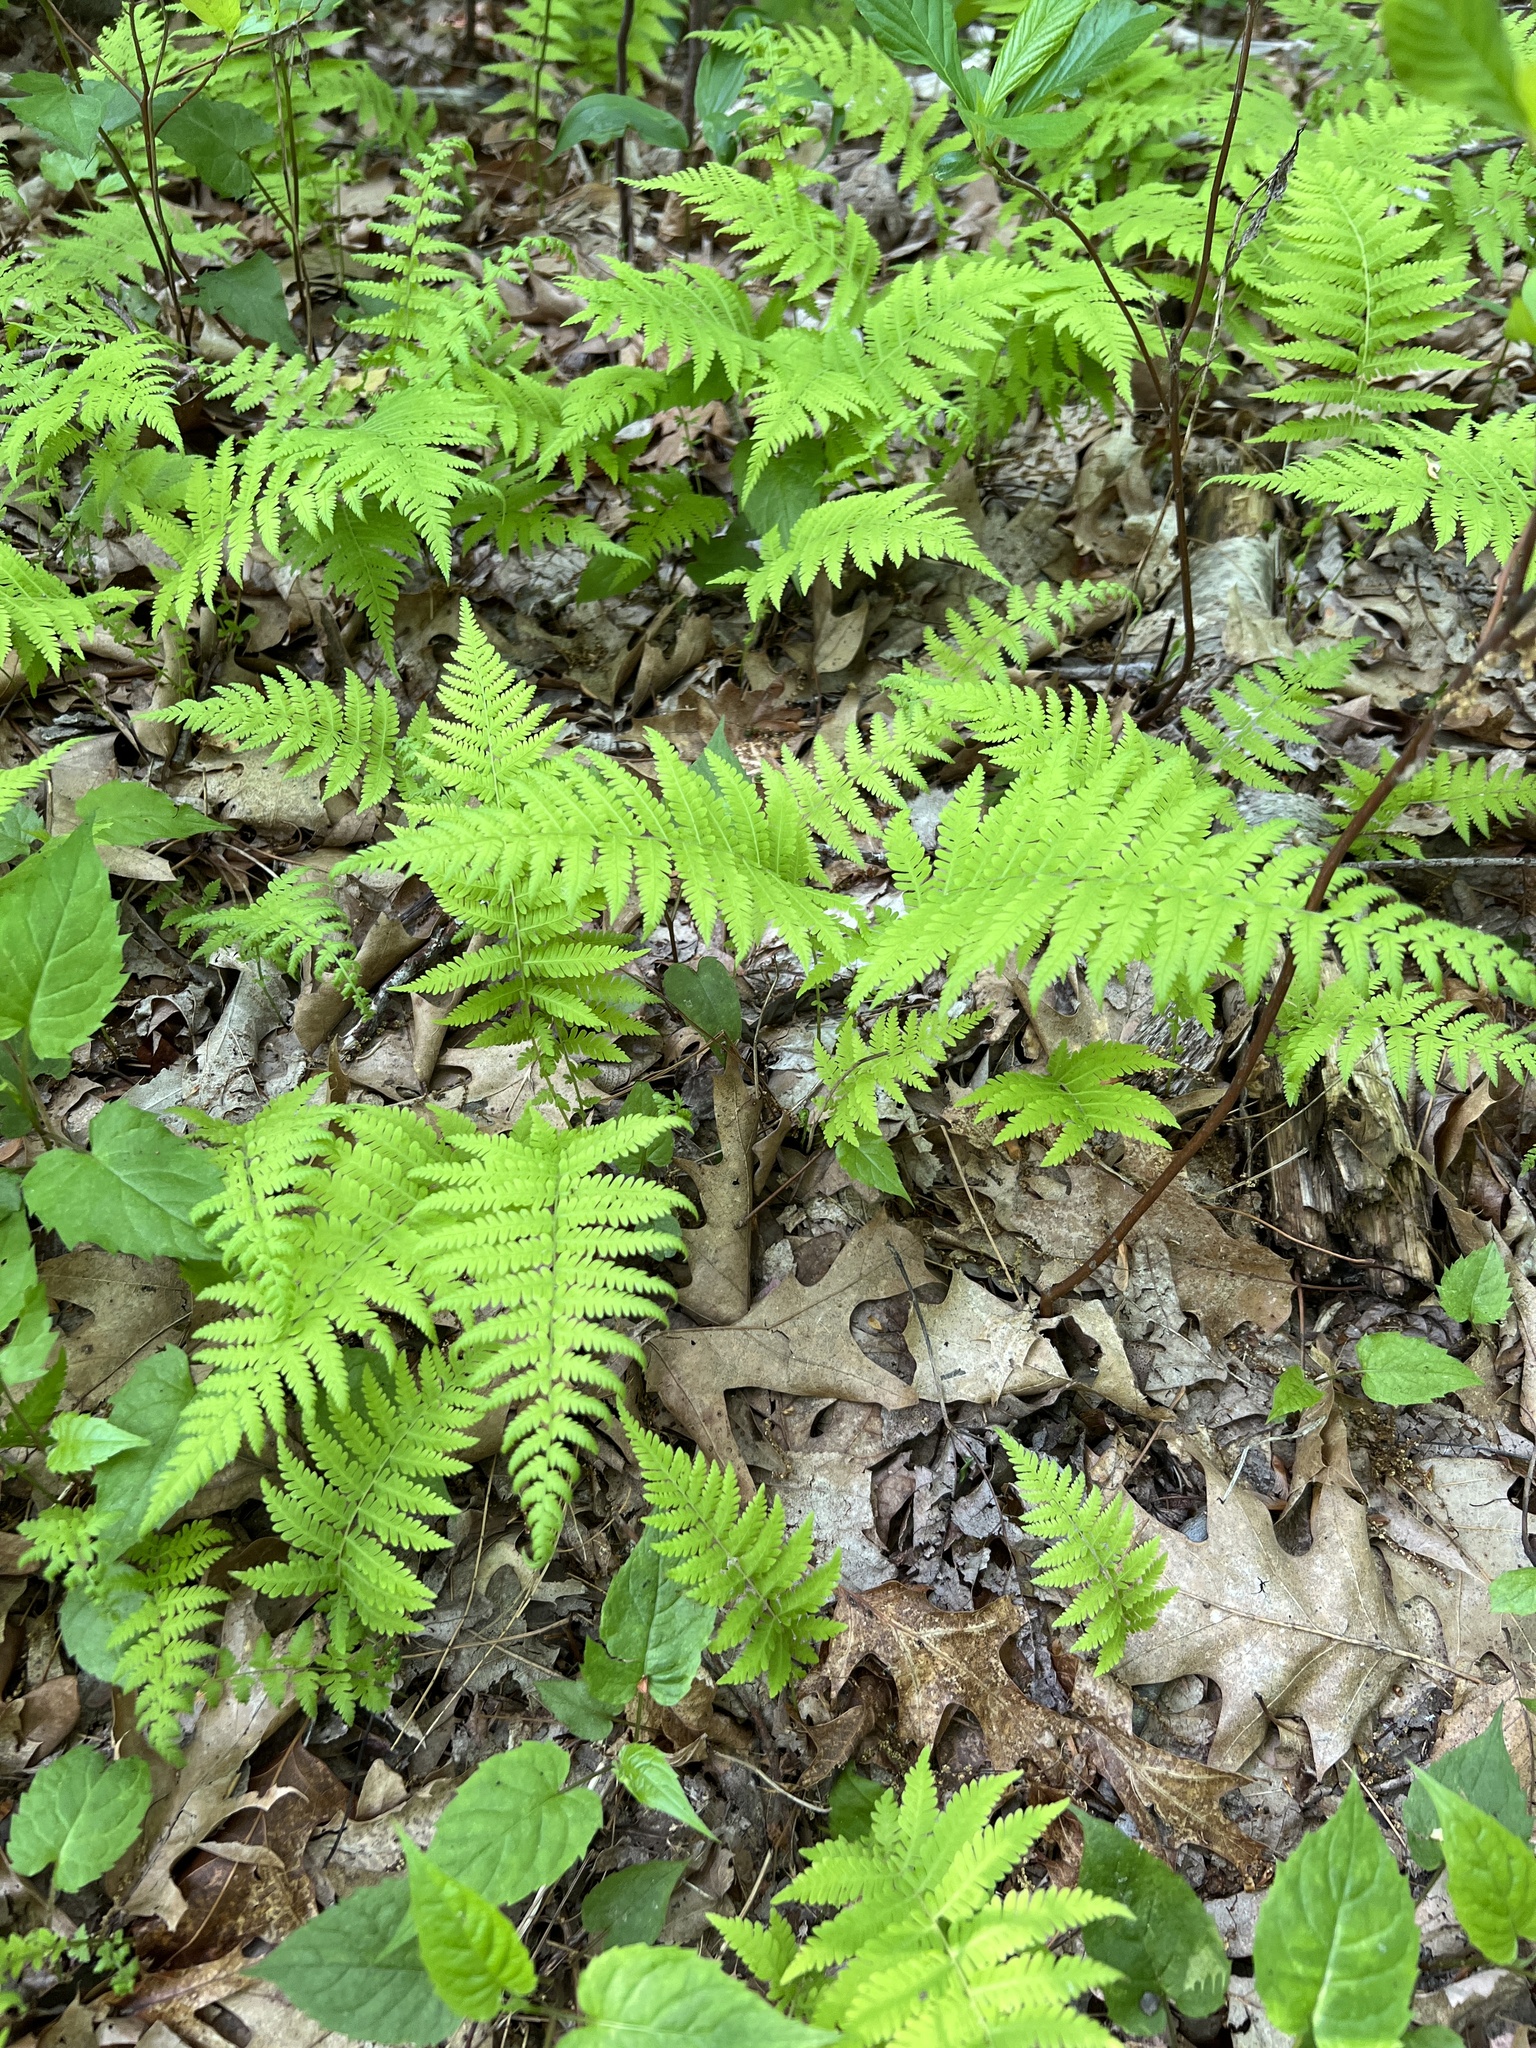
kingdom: Plantae
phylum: Tracheophyta
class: Polypodiopsida
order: Polypodiales
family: Thelypteridaceae
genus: Amauropelta
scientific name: Amauropelta noveboracensis
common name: New york fern
